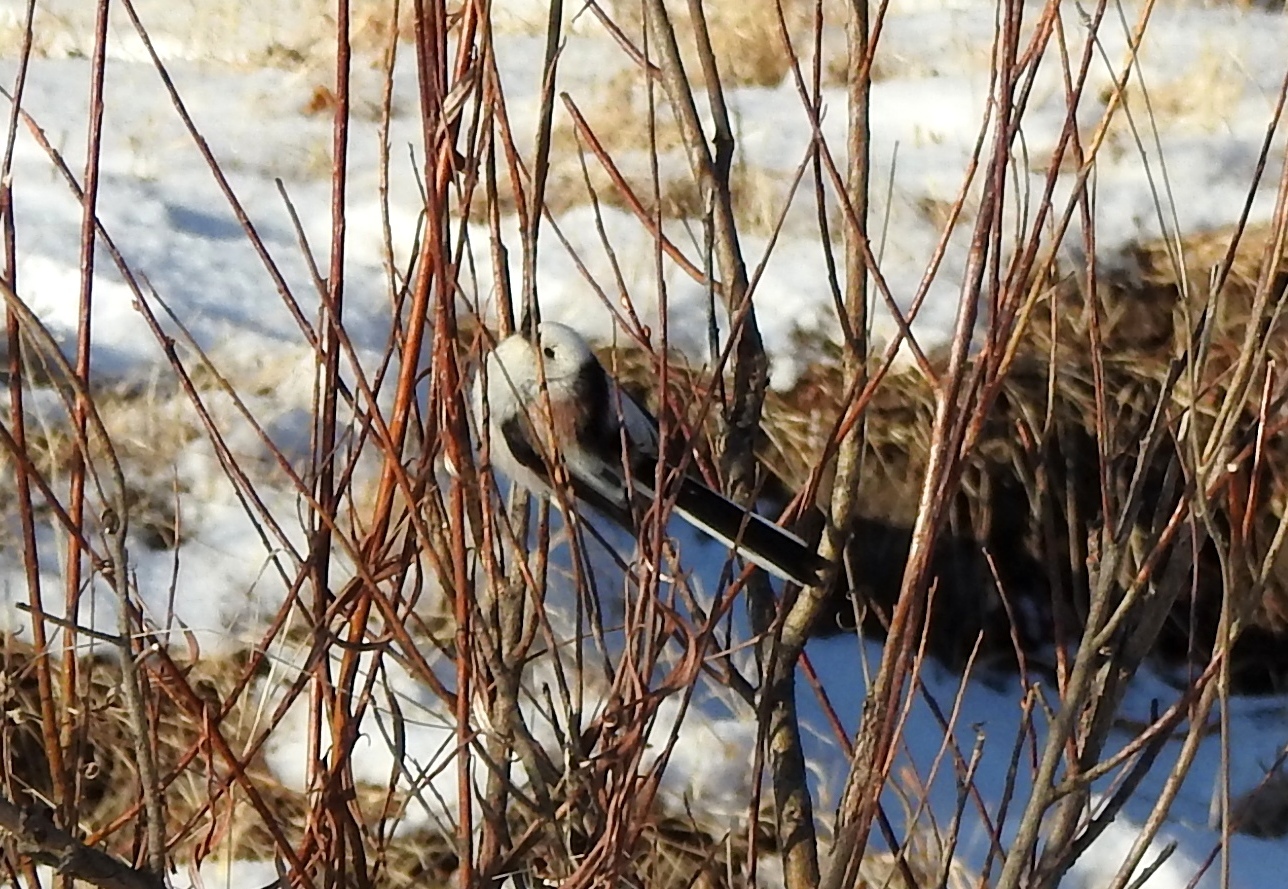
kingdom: Animalia
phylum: Chordata
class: Aves
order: Passeriformes
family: Aegithalidae
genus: Aegithalos
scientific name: Aegithalos caudatus
